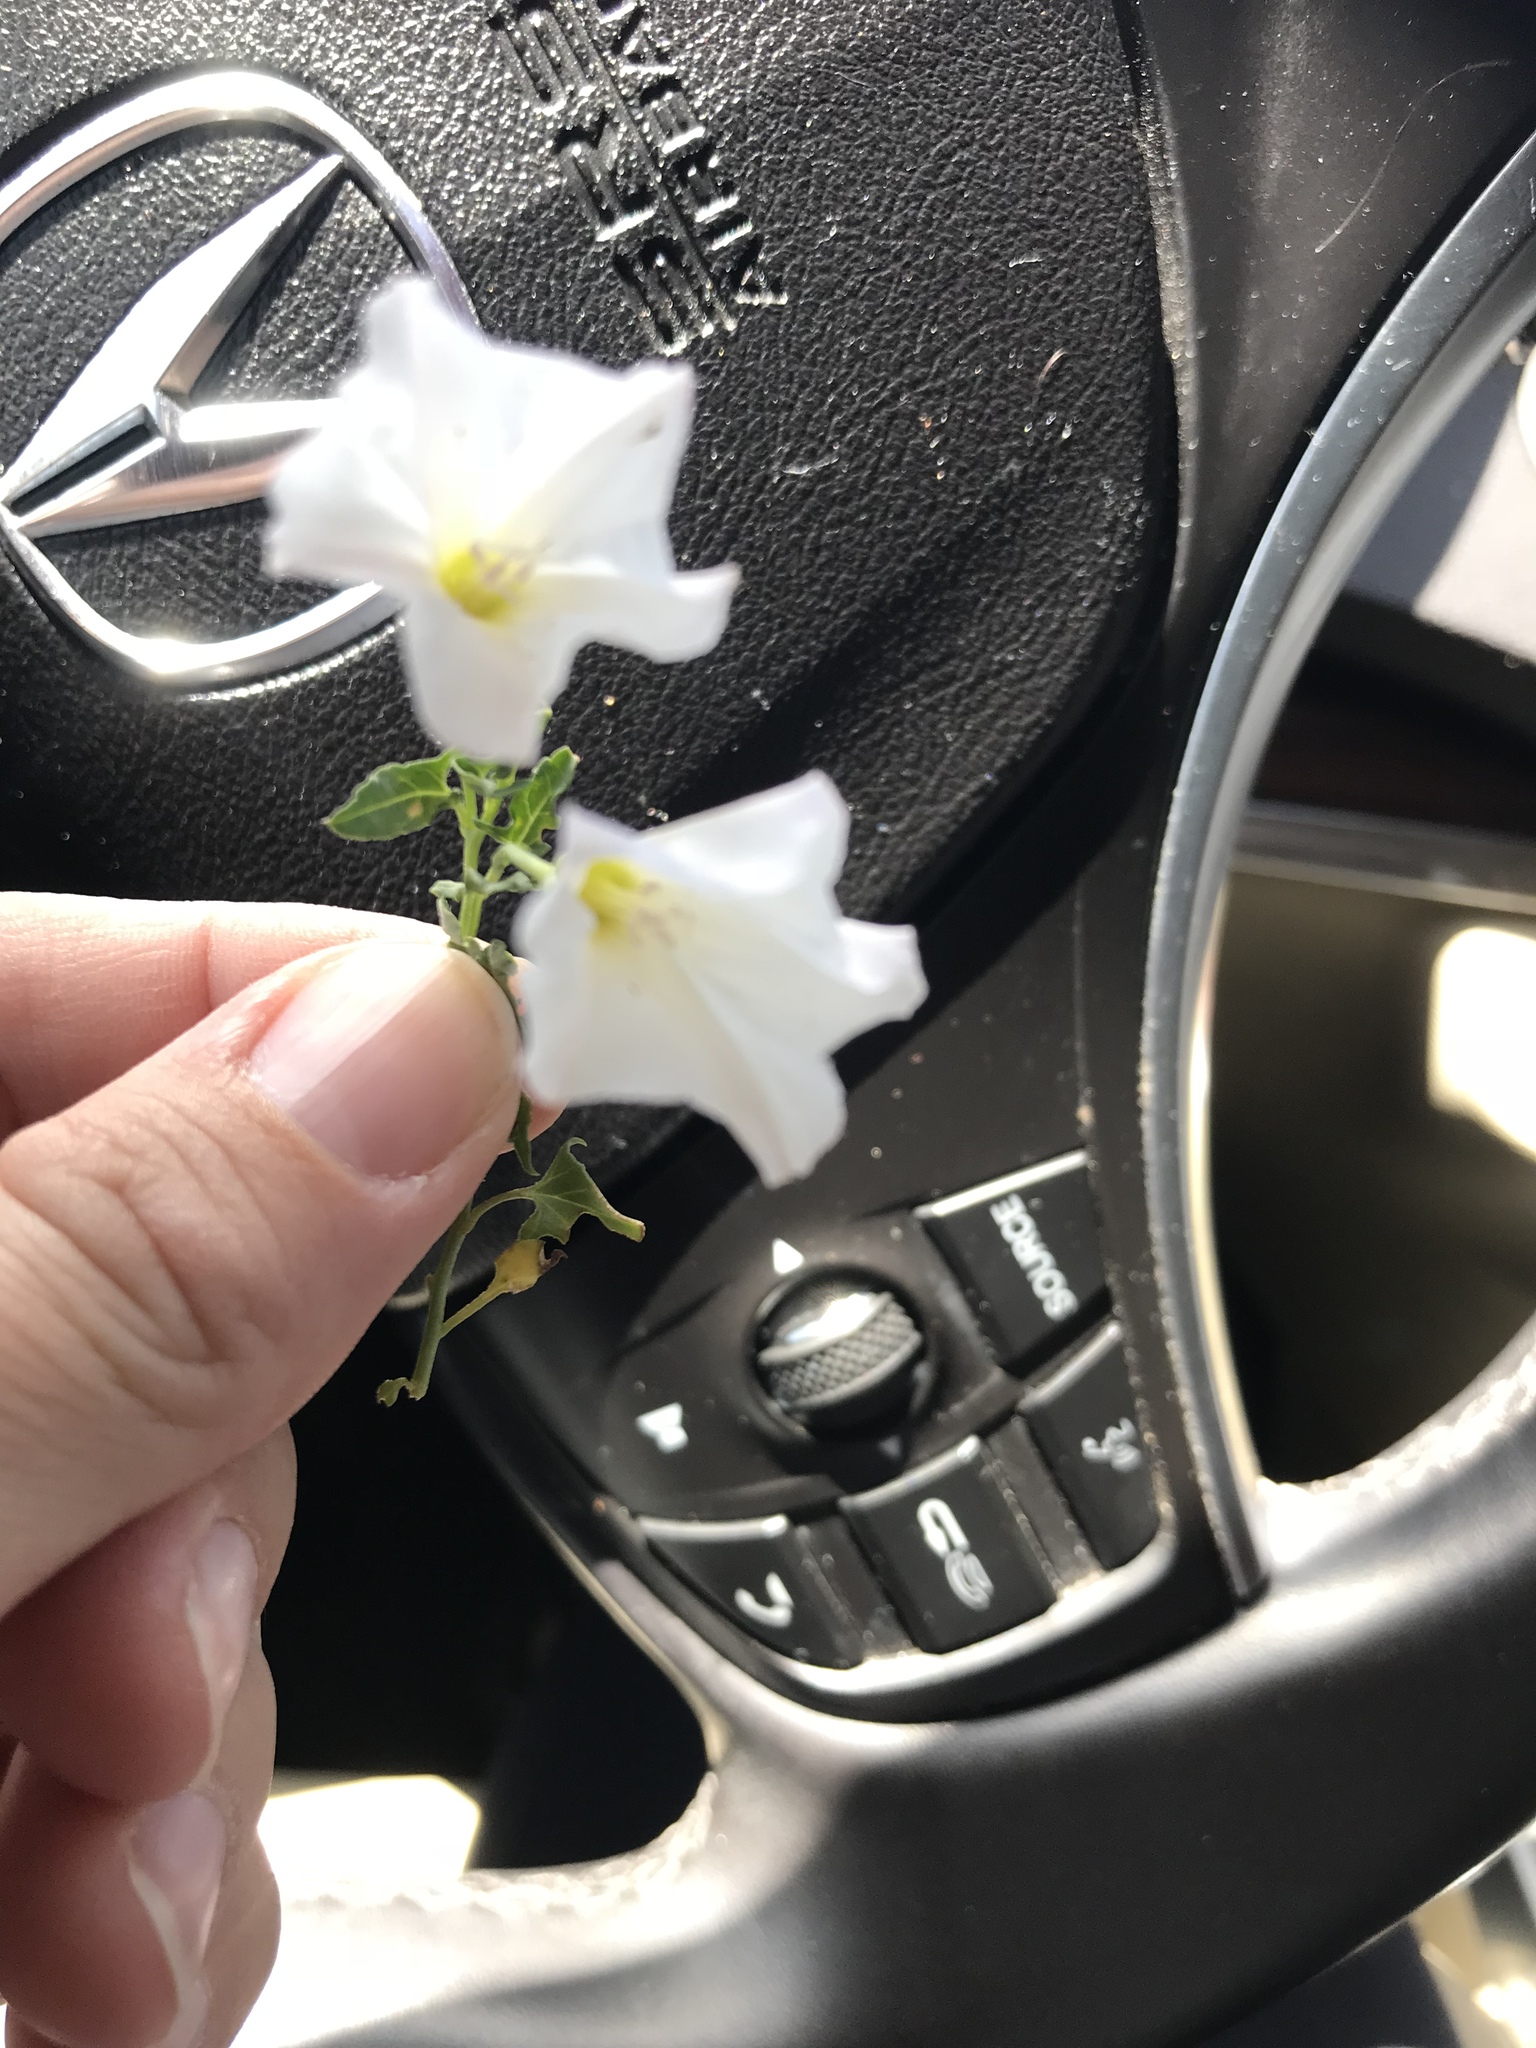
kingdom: Plantae
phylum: Tracheophyta
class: Magnoliopsida
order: Solanales
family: Convolvulaceae
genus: Convolvulus
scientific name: Convolvulus arvensis
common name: Field bindweed
